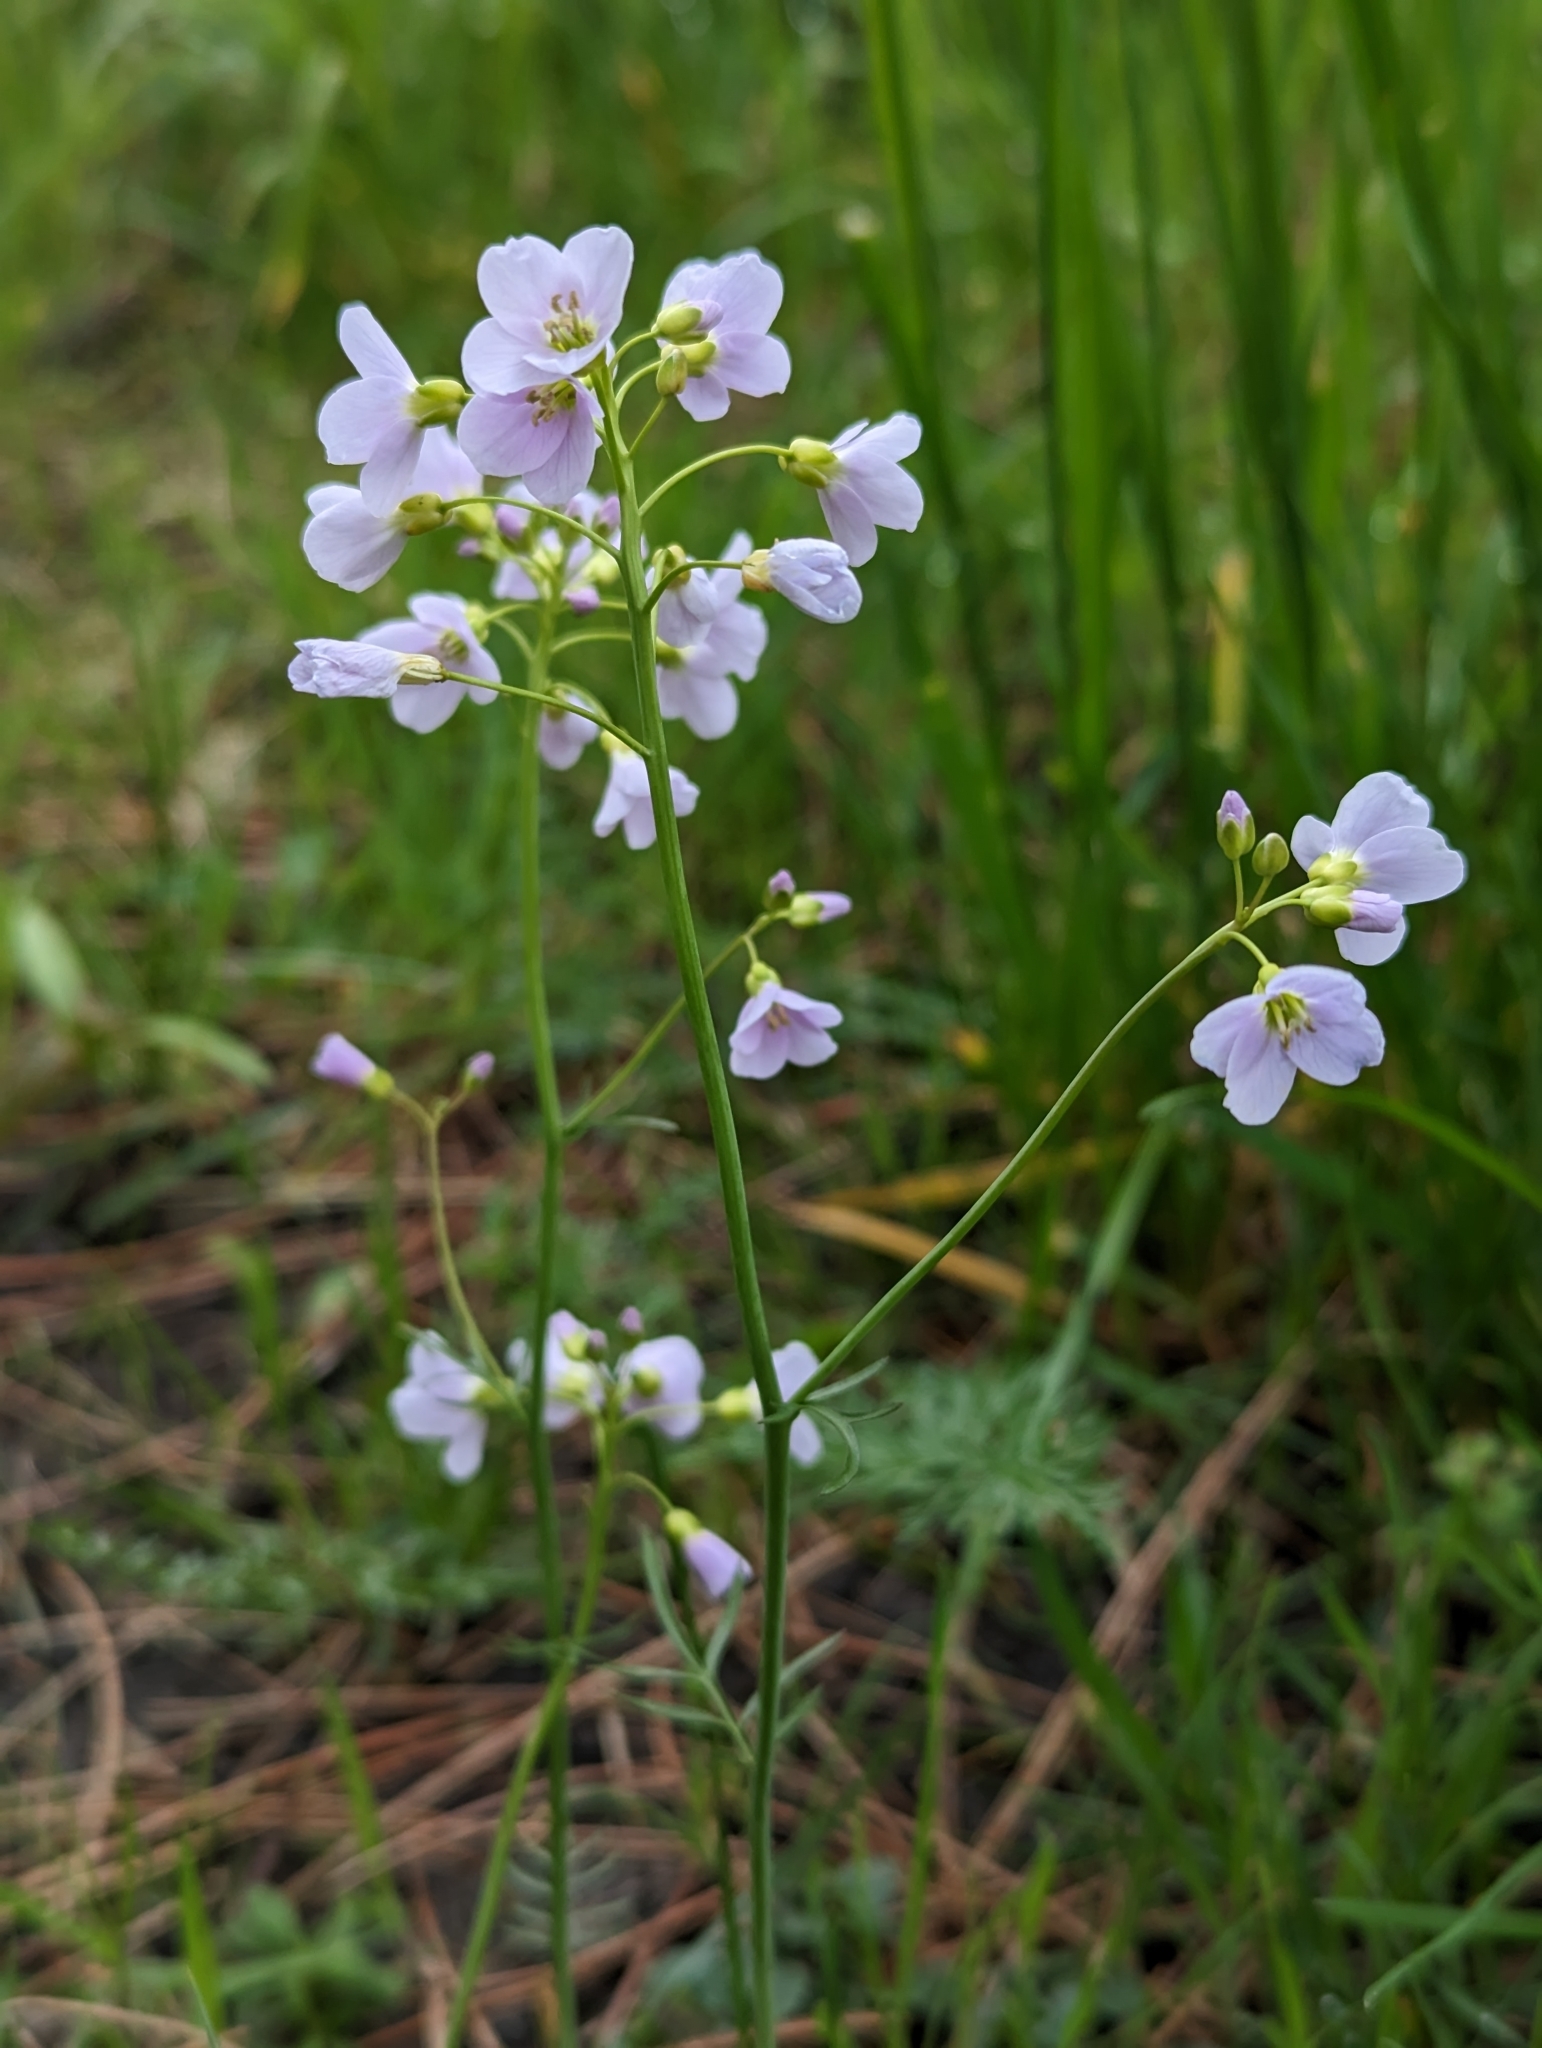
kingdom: Plantae
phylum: Tracheophyta
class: Magnoliopsida
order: Brassicales
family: Brassicaceae
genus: Cardamine
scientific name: Cardamine pratensis
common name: Cuckoo flower
